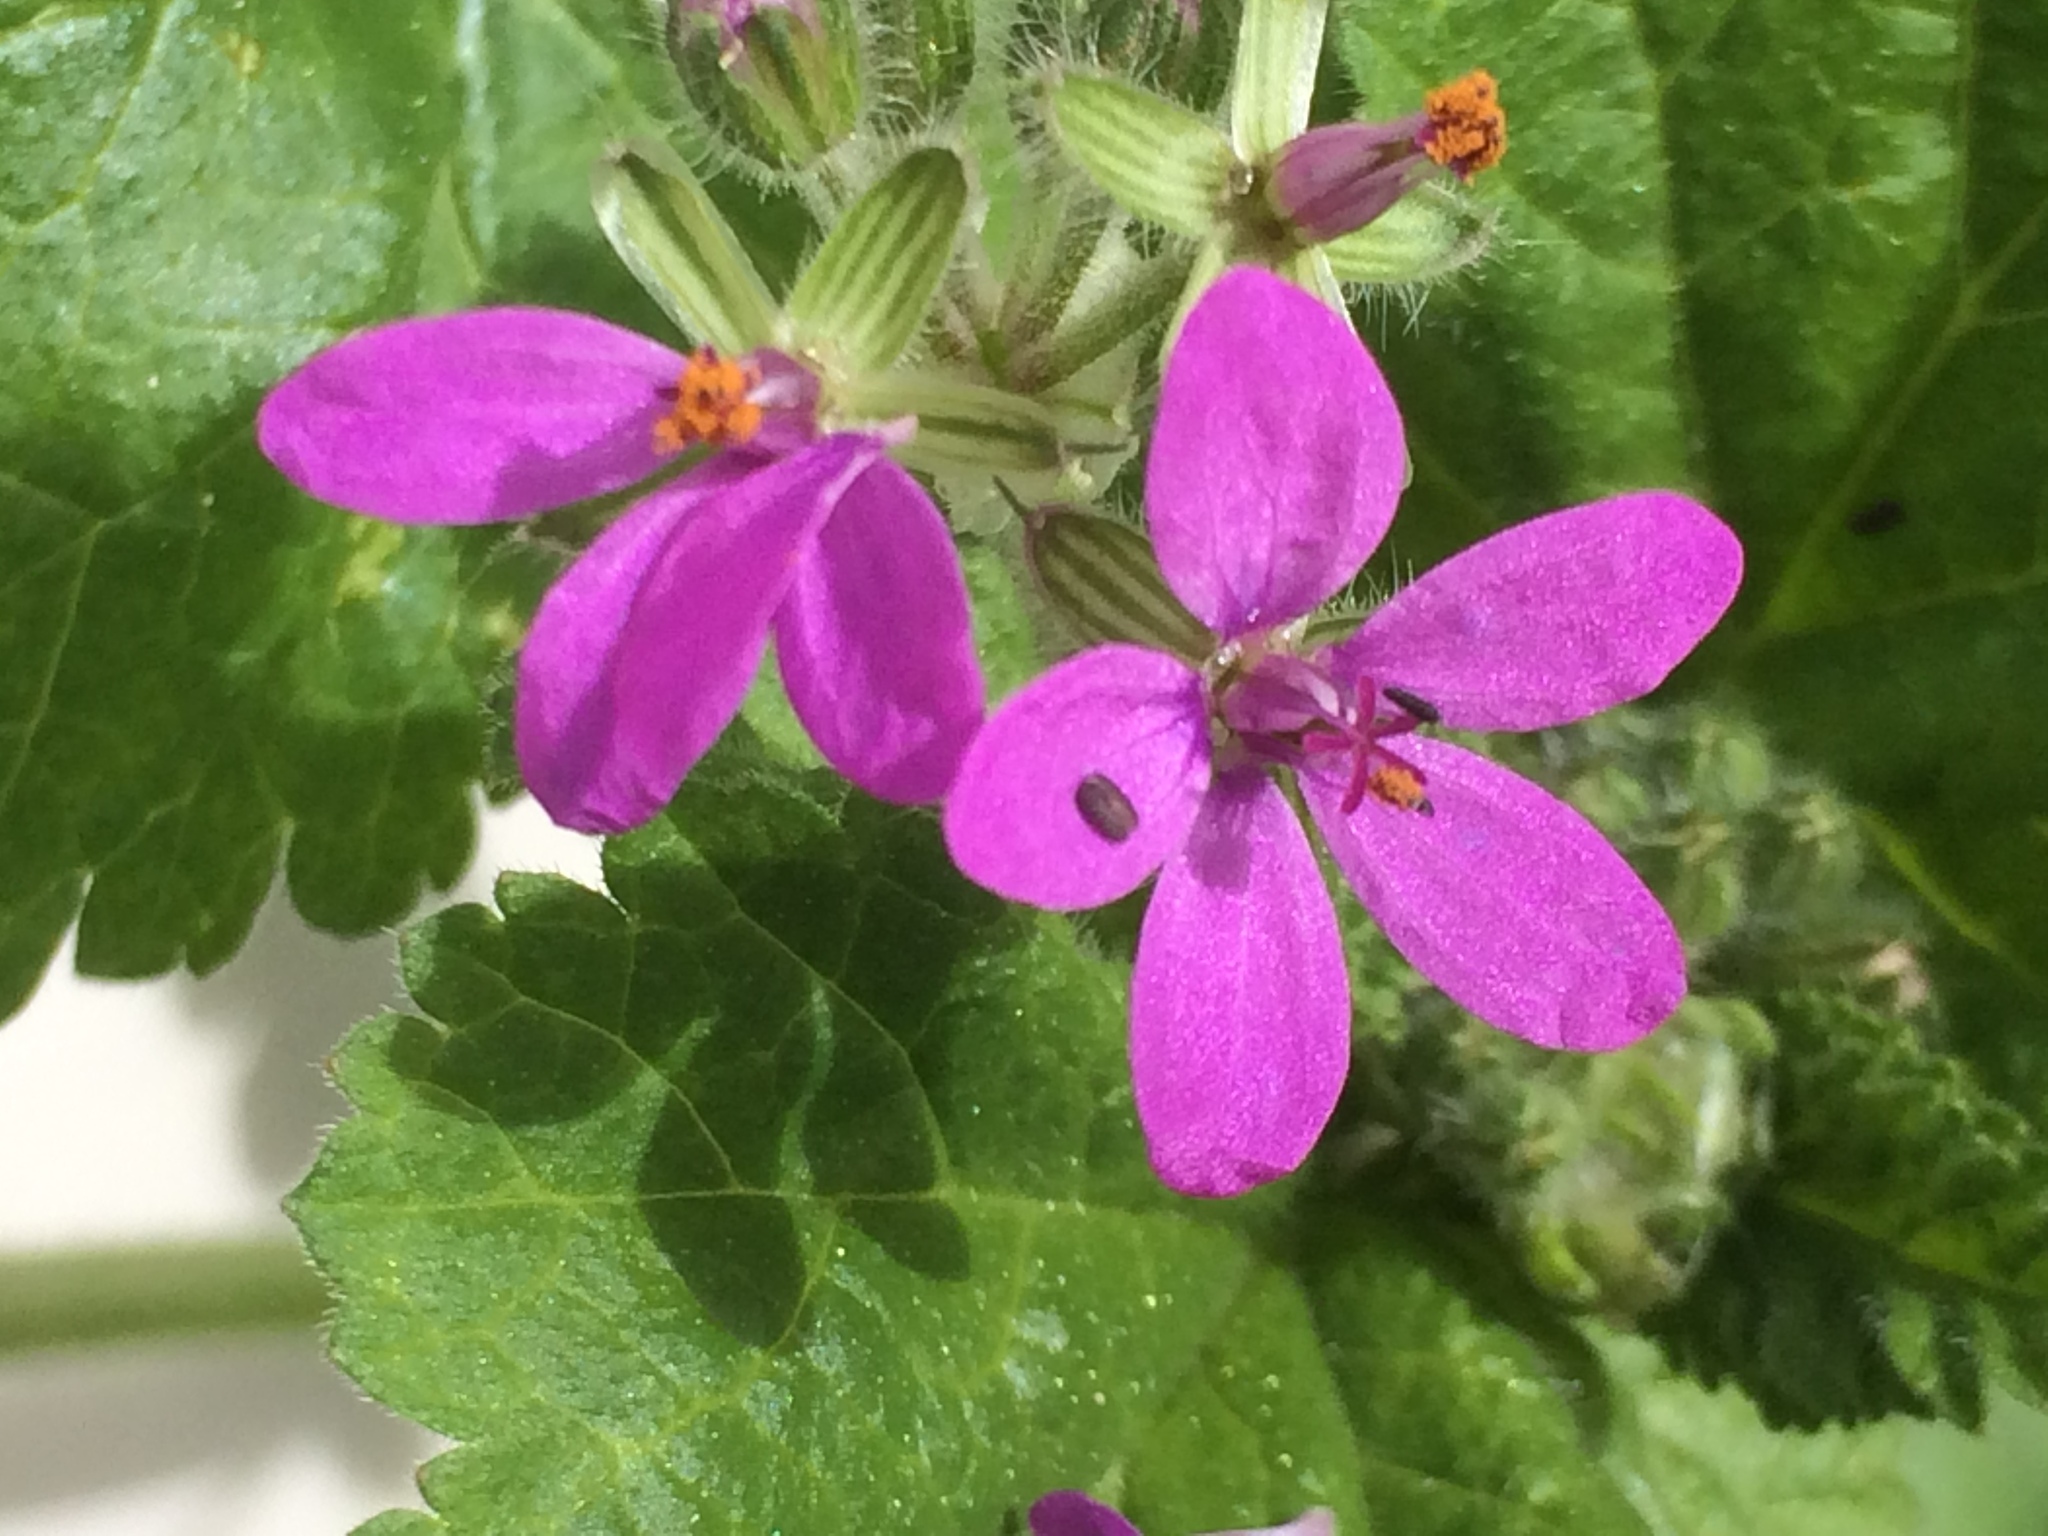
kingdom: Plantae
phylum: Tracheophyta
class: Magnoliopsida
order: Geraniales
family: Geraniaceae
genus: Erodium
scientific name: Erodium malacoides
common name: Soft stork's-bill
